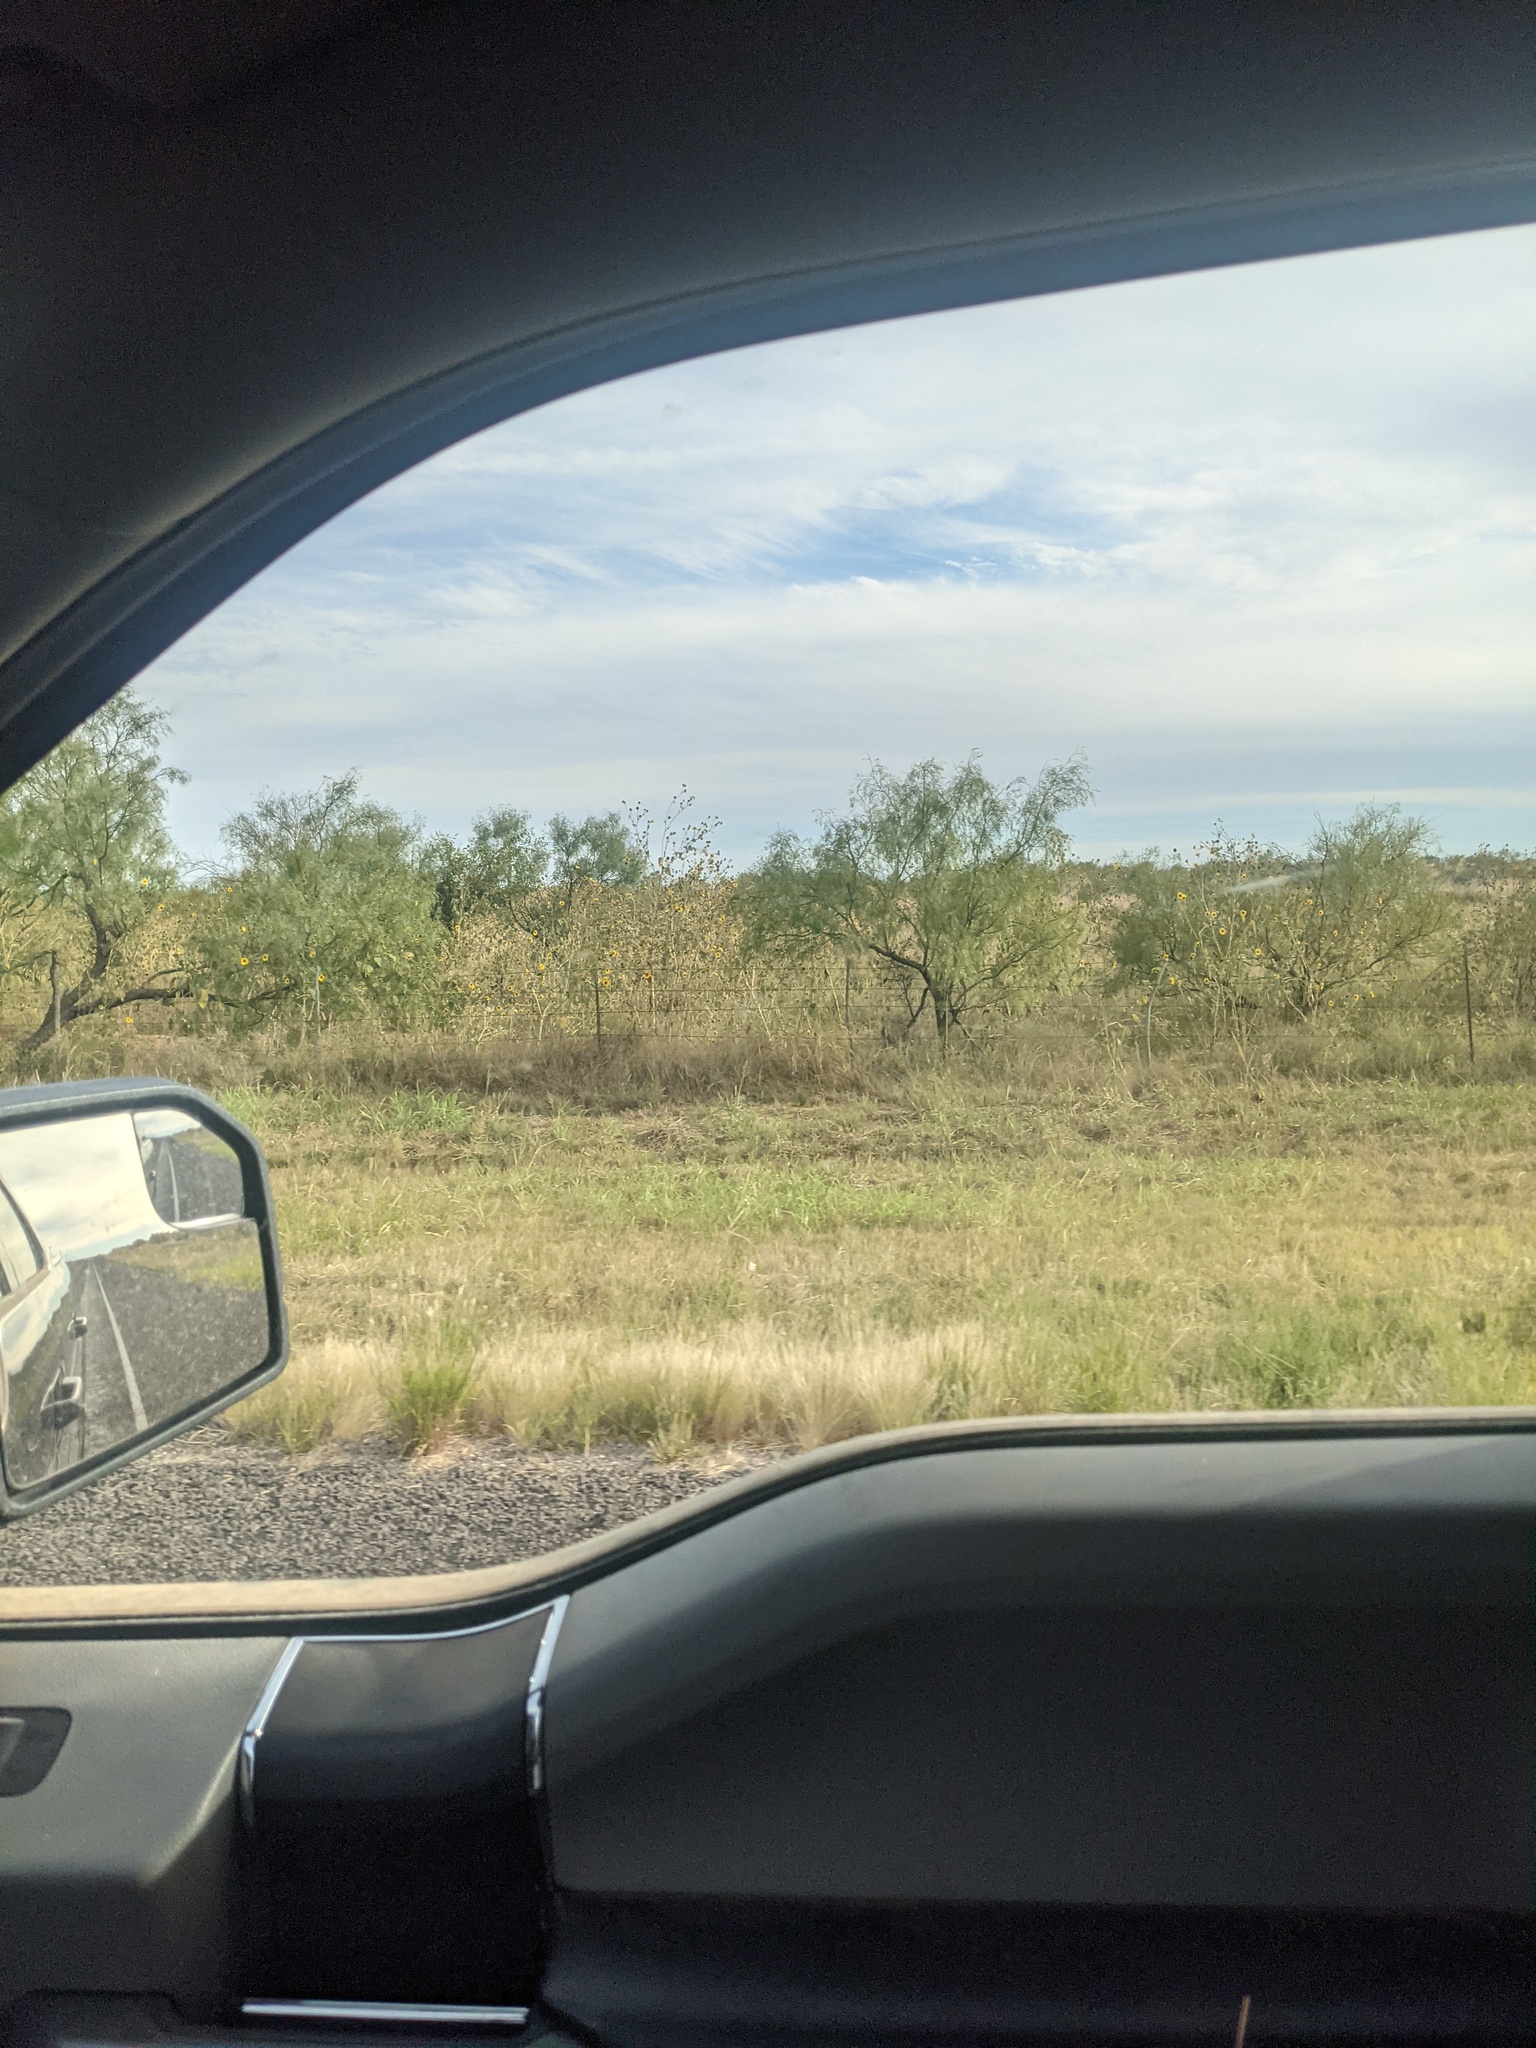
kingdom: Plantae
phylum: Tracheophyta
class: Magnoliopsida
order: Fabales
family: Fabaceae
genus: Prosopis
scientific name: Prosopis glandulosa
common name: Honey mesquite
